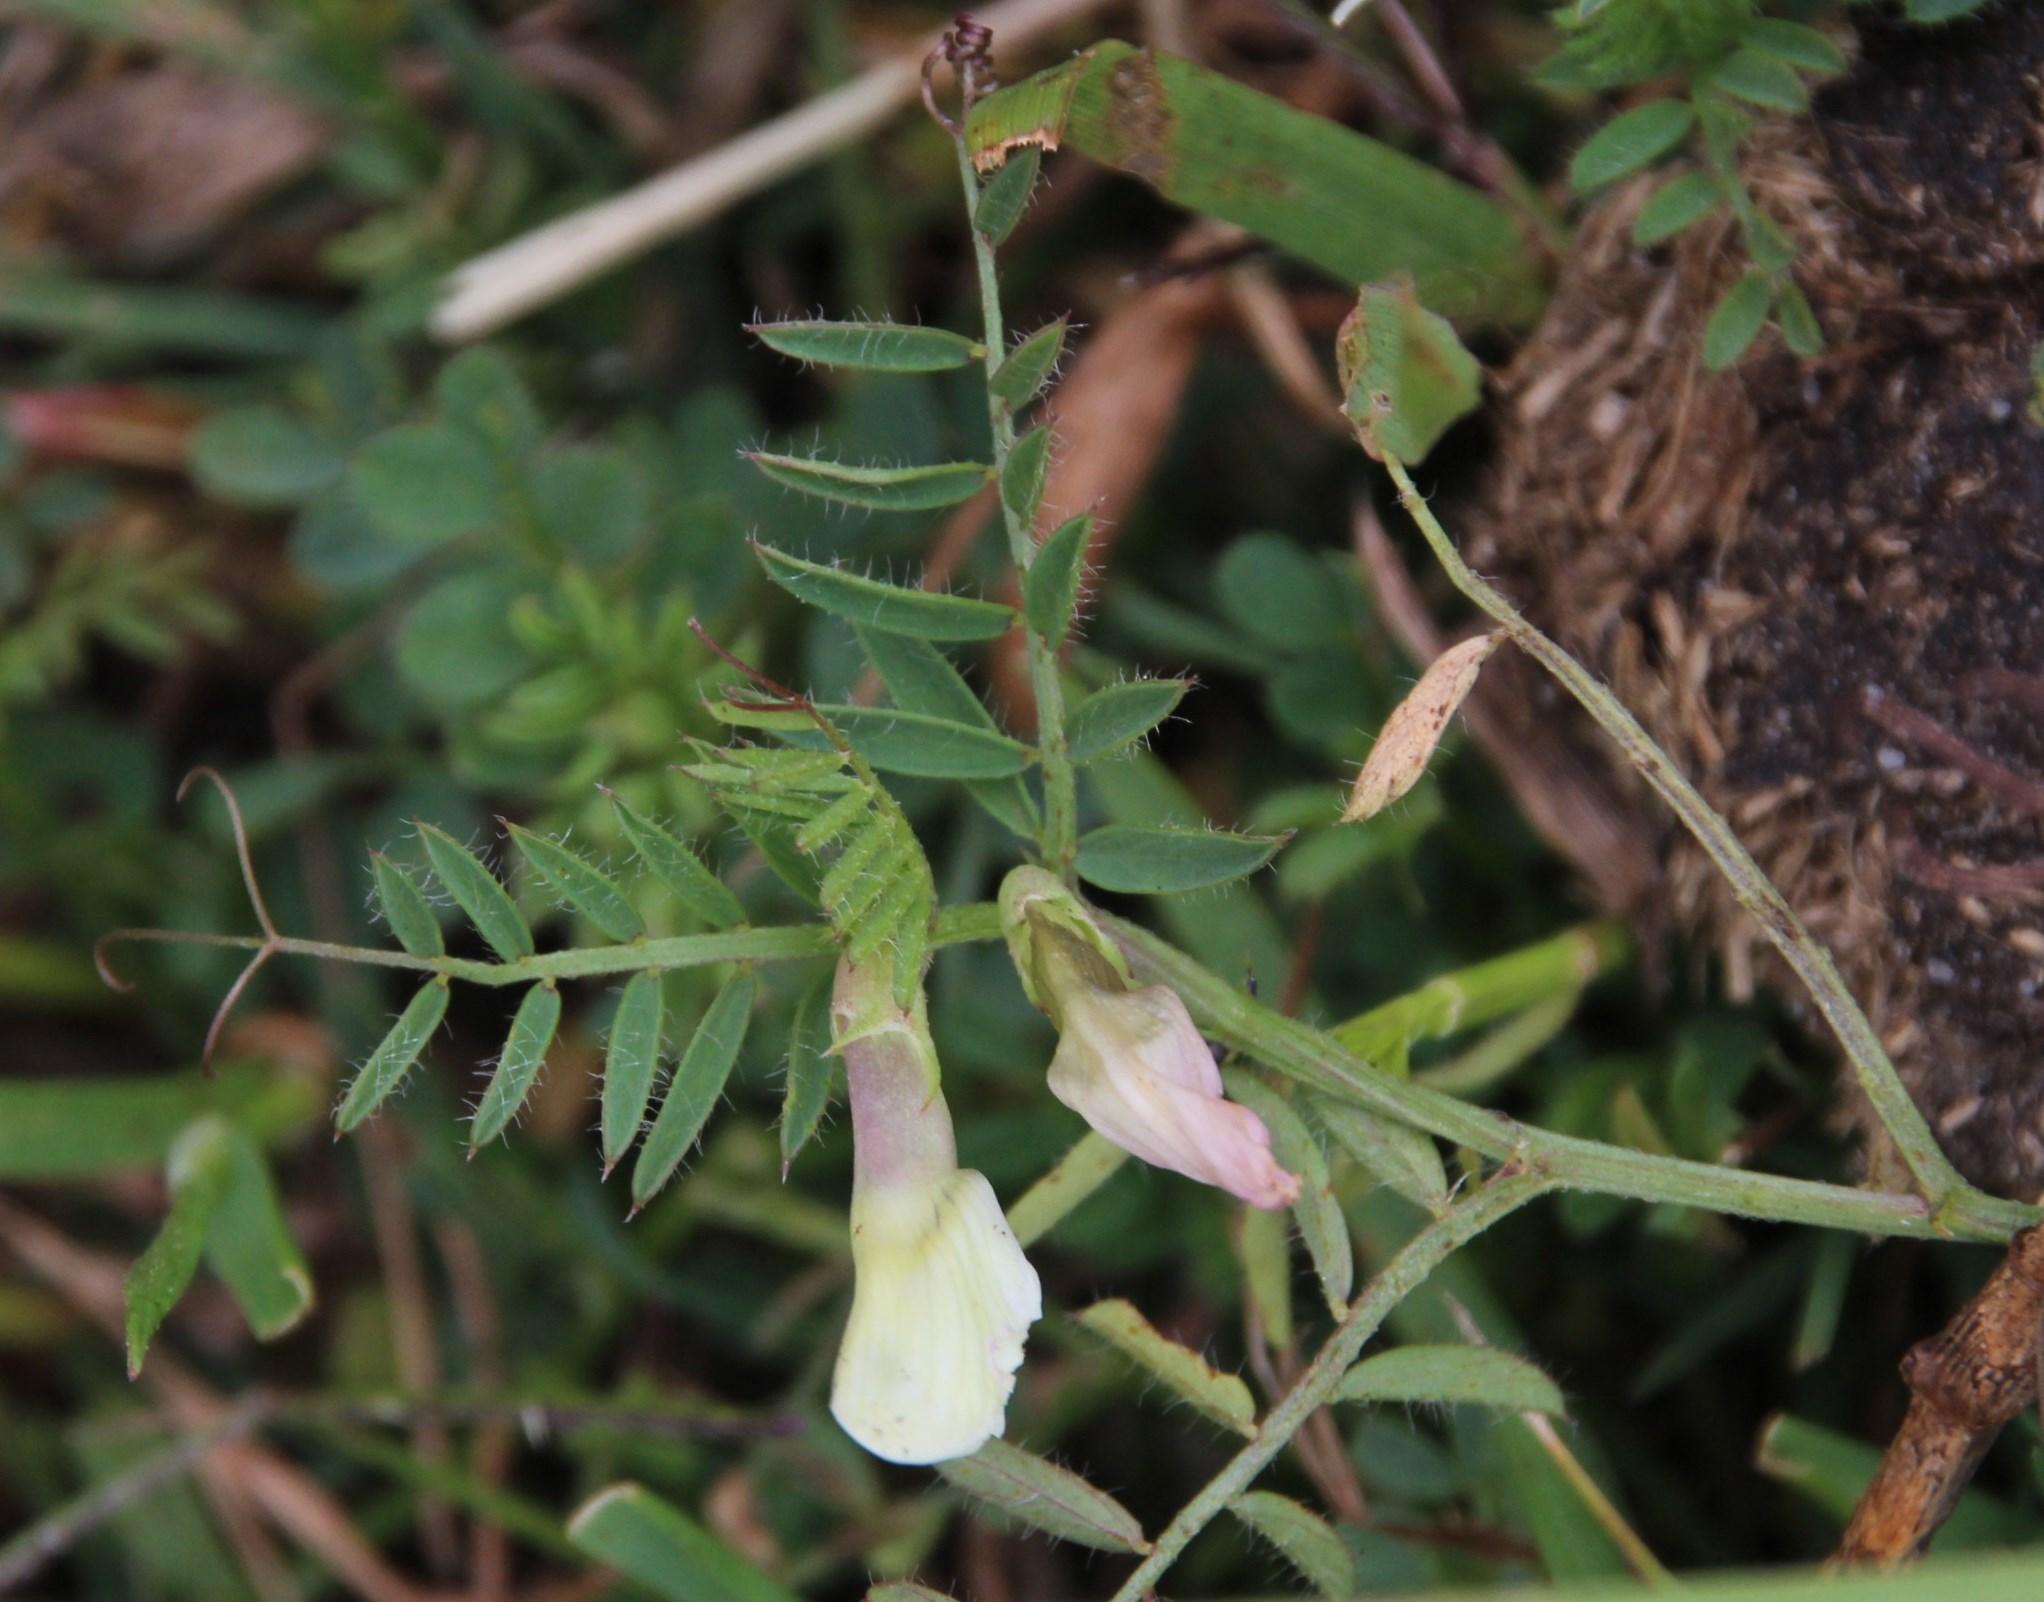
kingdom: Plantae
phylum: Tracheophyta
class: Magnoliopsida
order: Fabales
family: Fabaceae
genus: Vicia
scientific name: Vicia lutea
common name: Smooth yellow vetch
